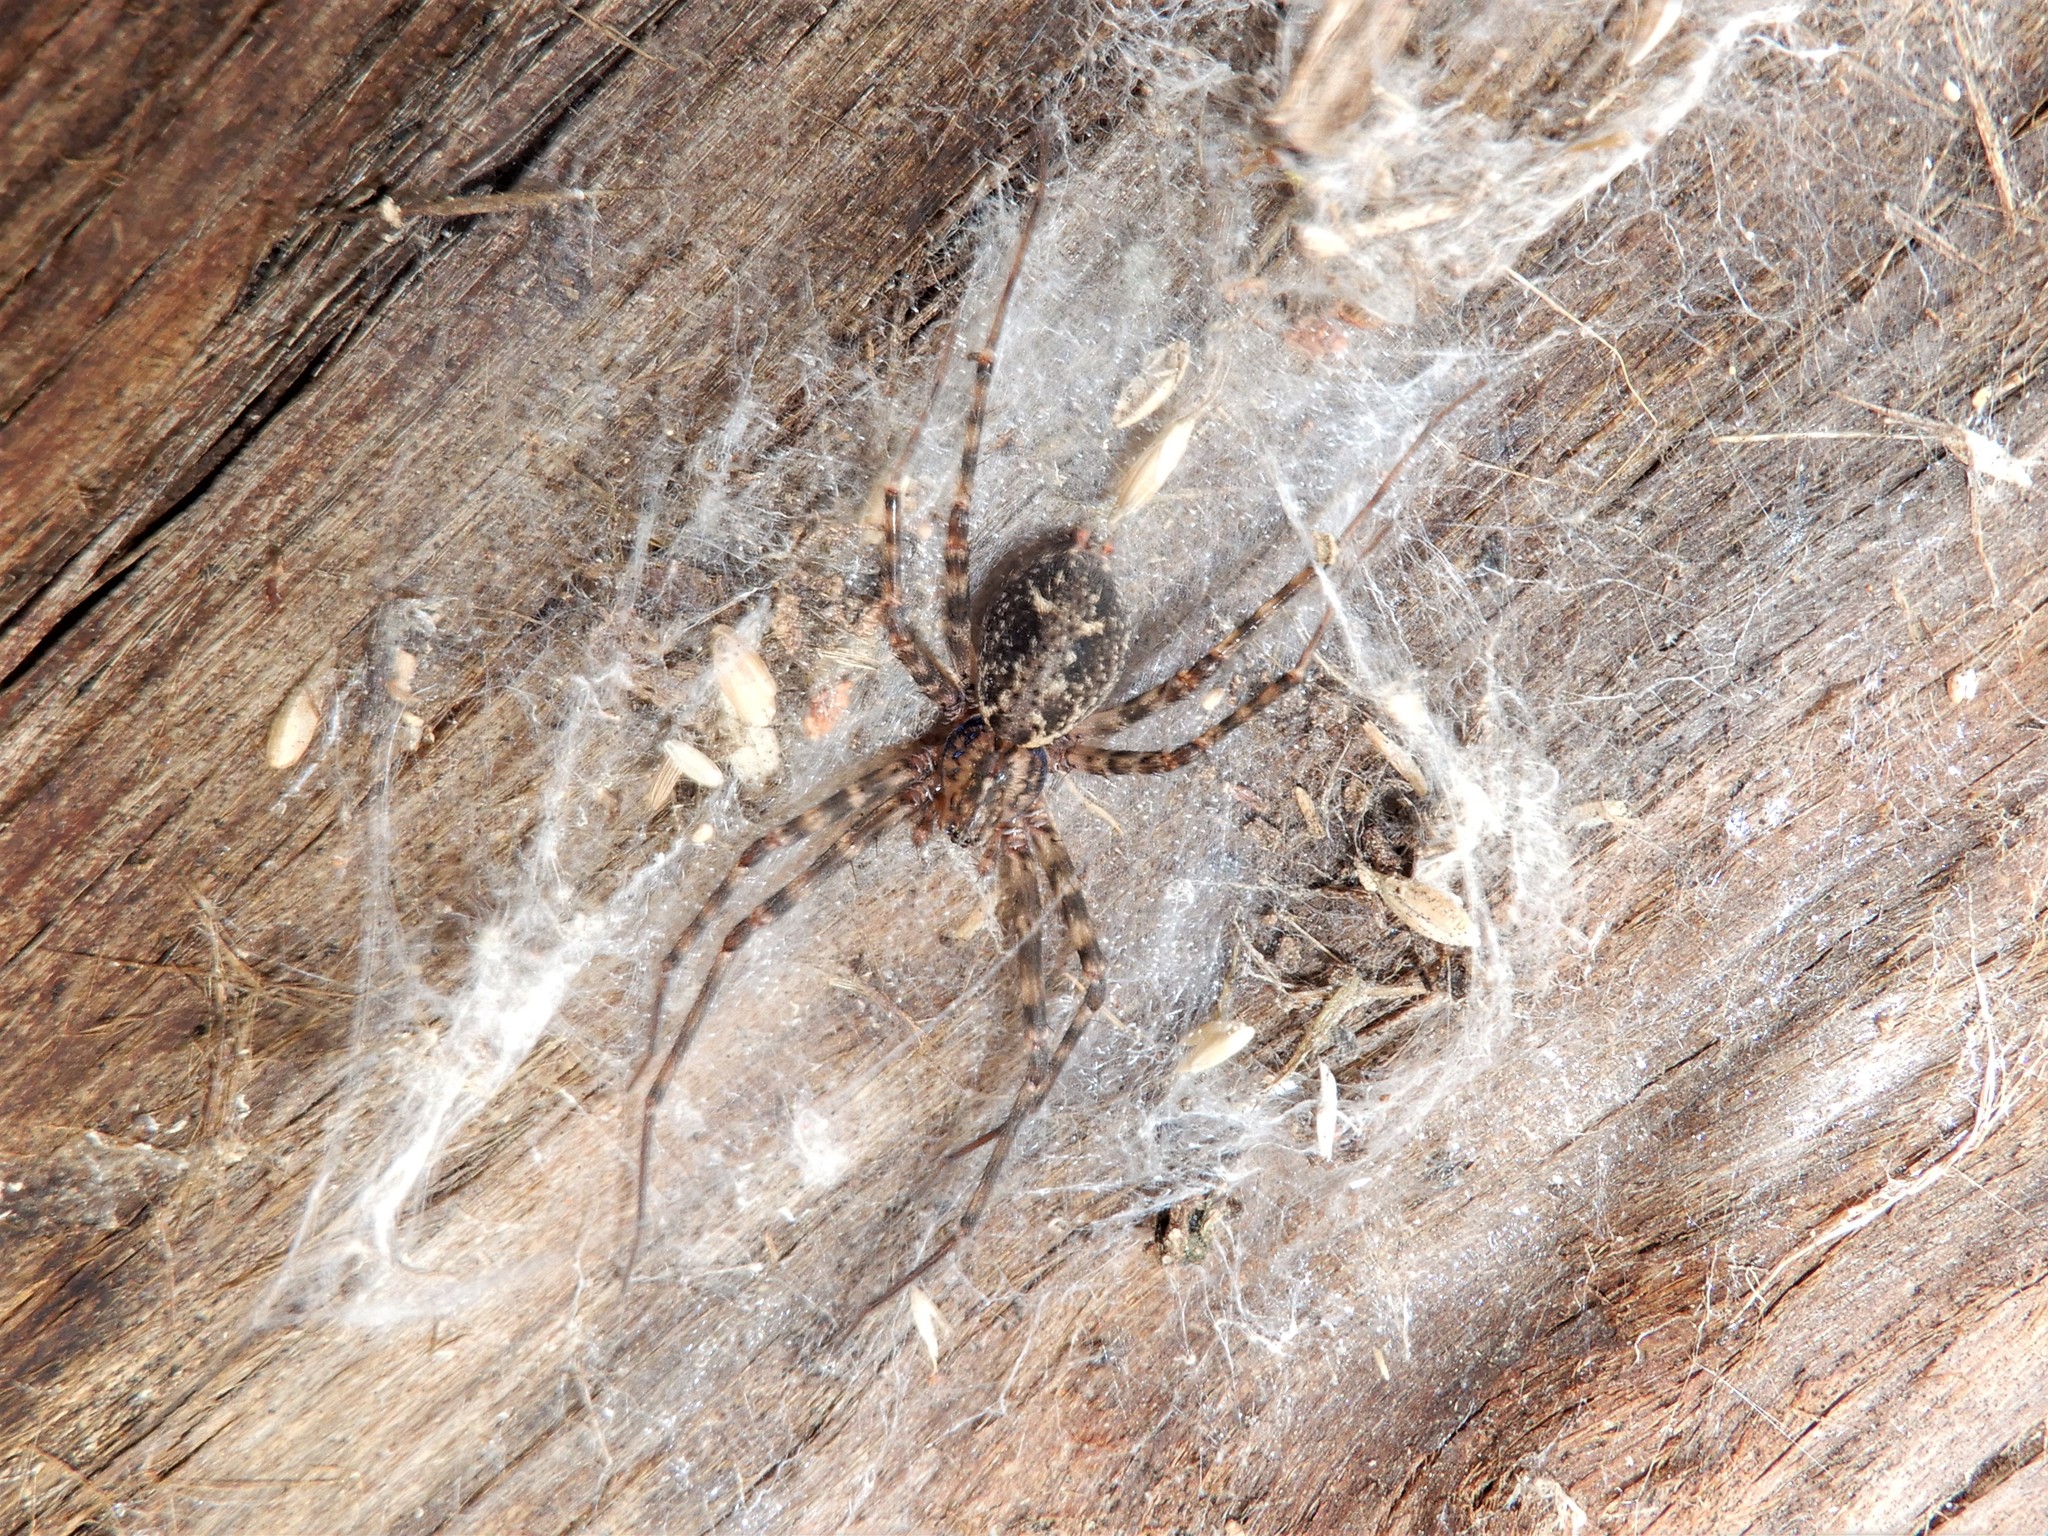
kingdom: Animalia
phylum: Arthropoda
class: Arachnida
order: Araneae
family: Stiphidiidae
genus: Stiphidion
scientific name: Stiphidion facetum
